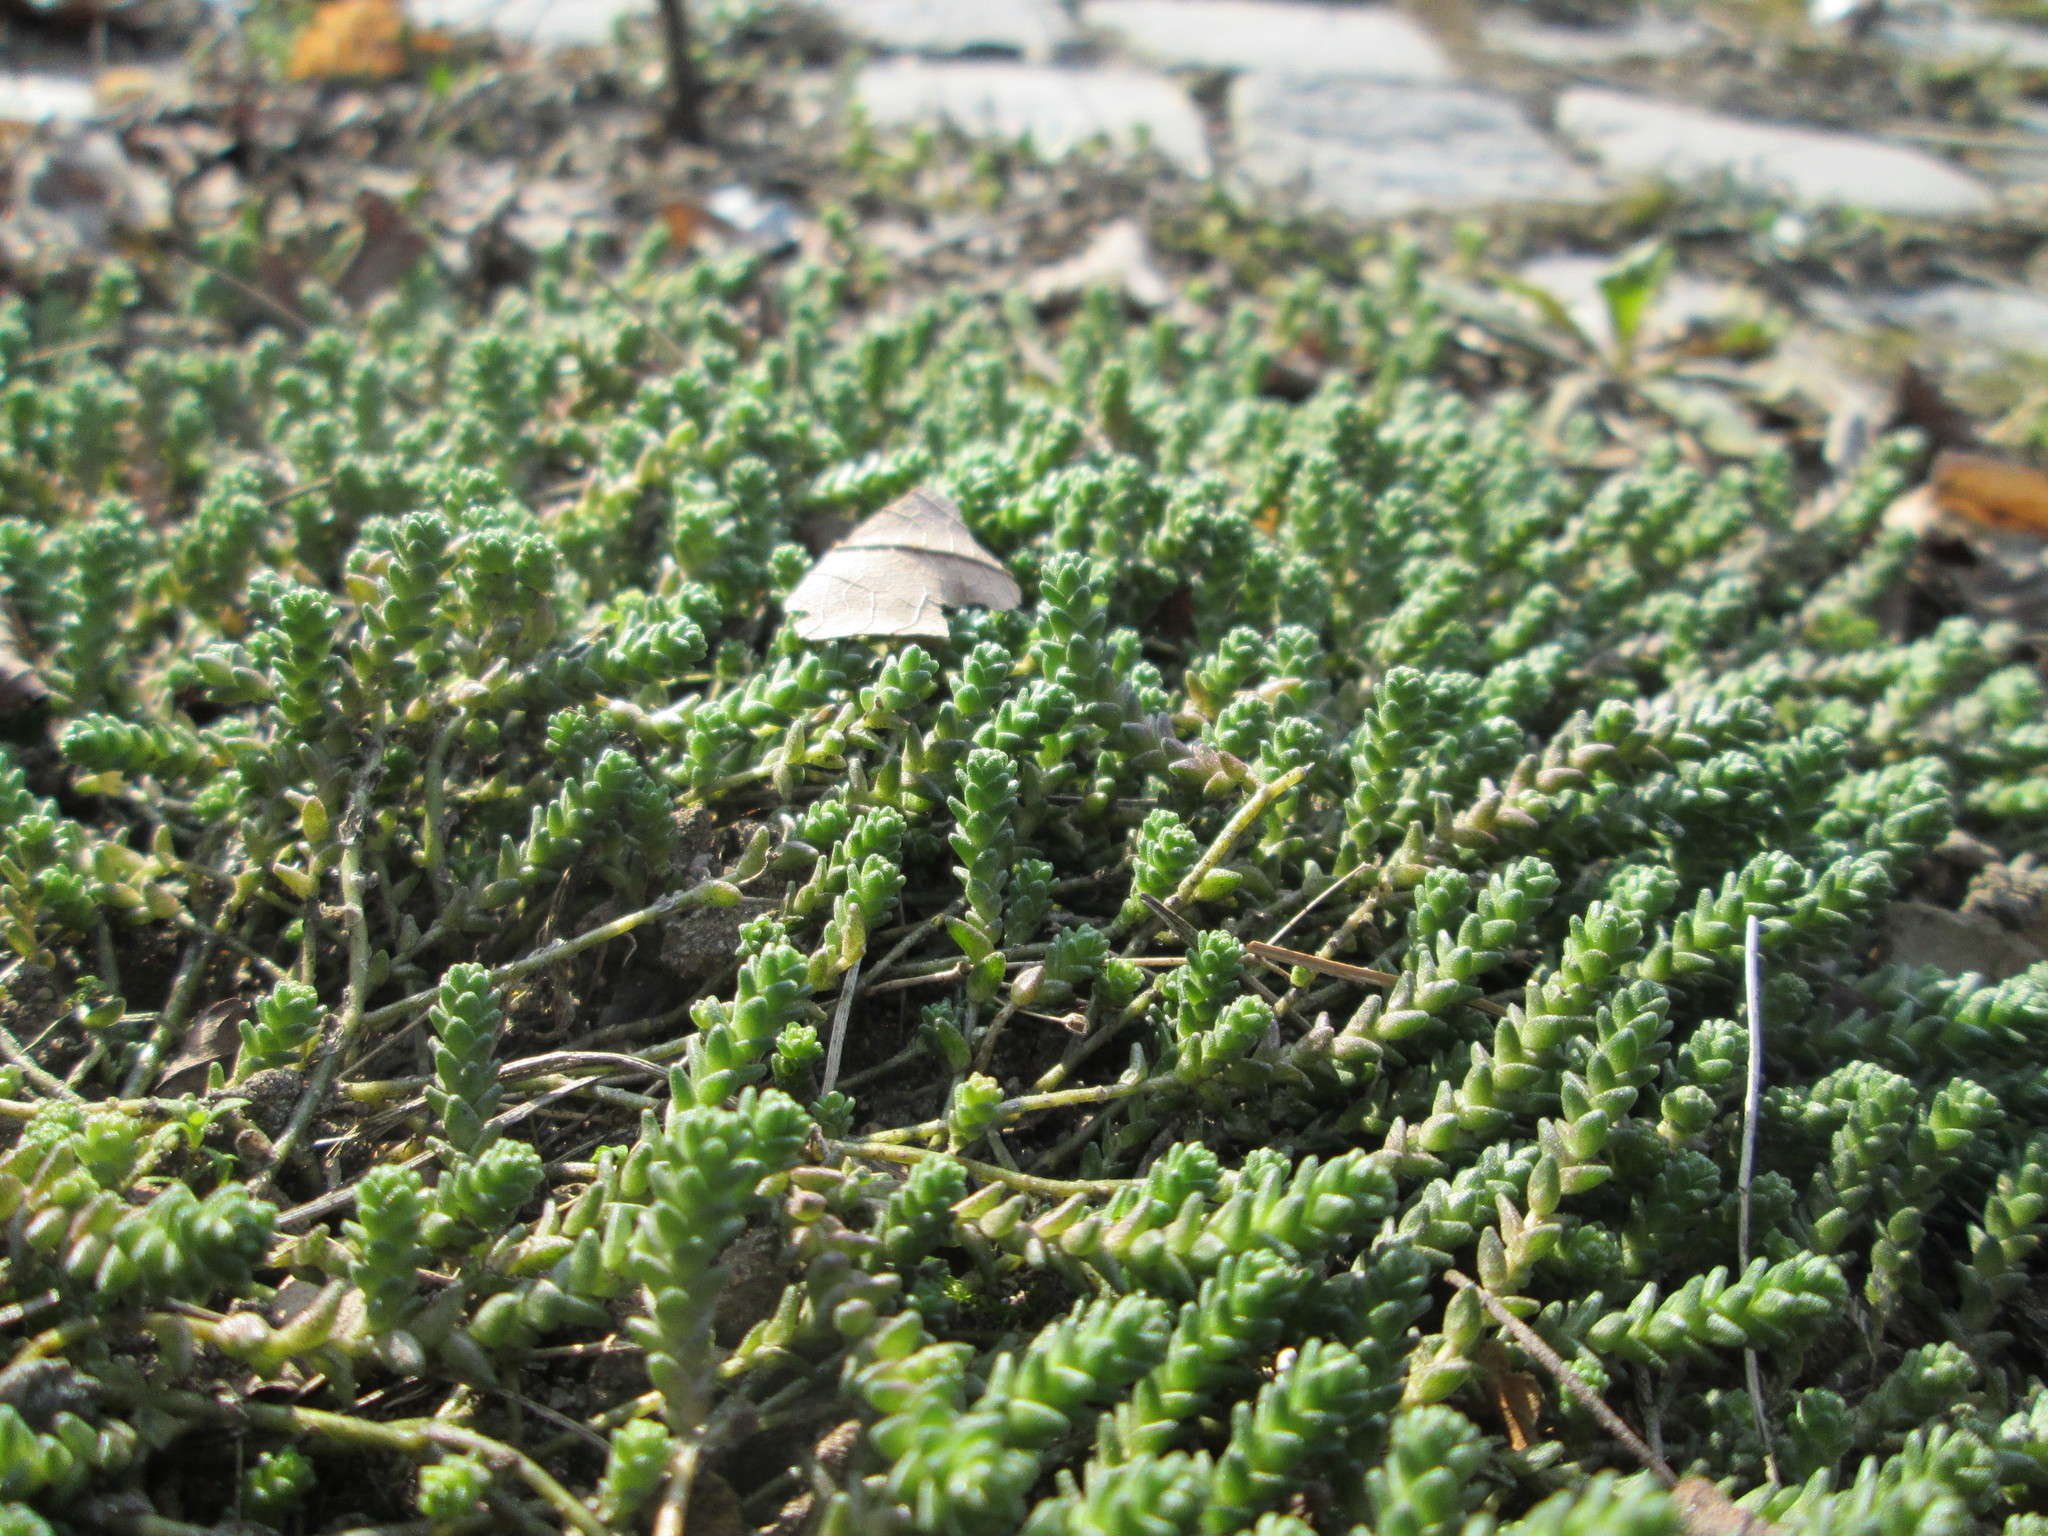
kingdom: Plantae
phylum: Tracheophyta
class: Magnoliopsida
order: Saxifragales
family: Crassulaceae
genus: Sedum
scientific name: Sedum acre
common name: Biting stonecrop
